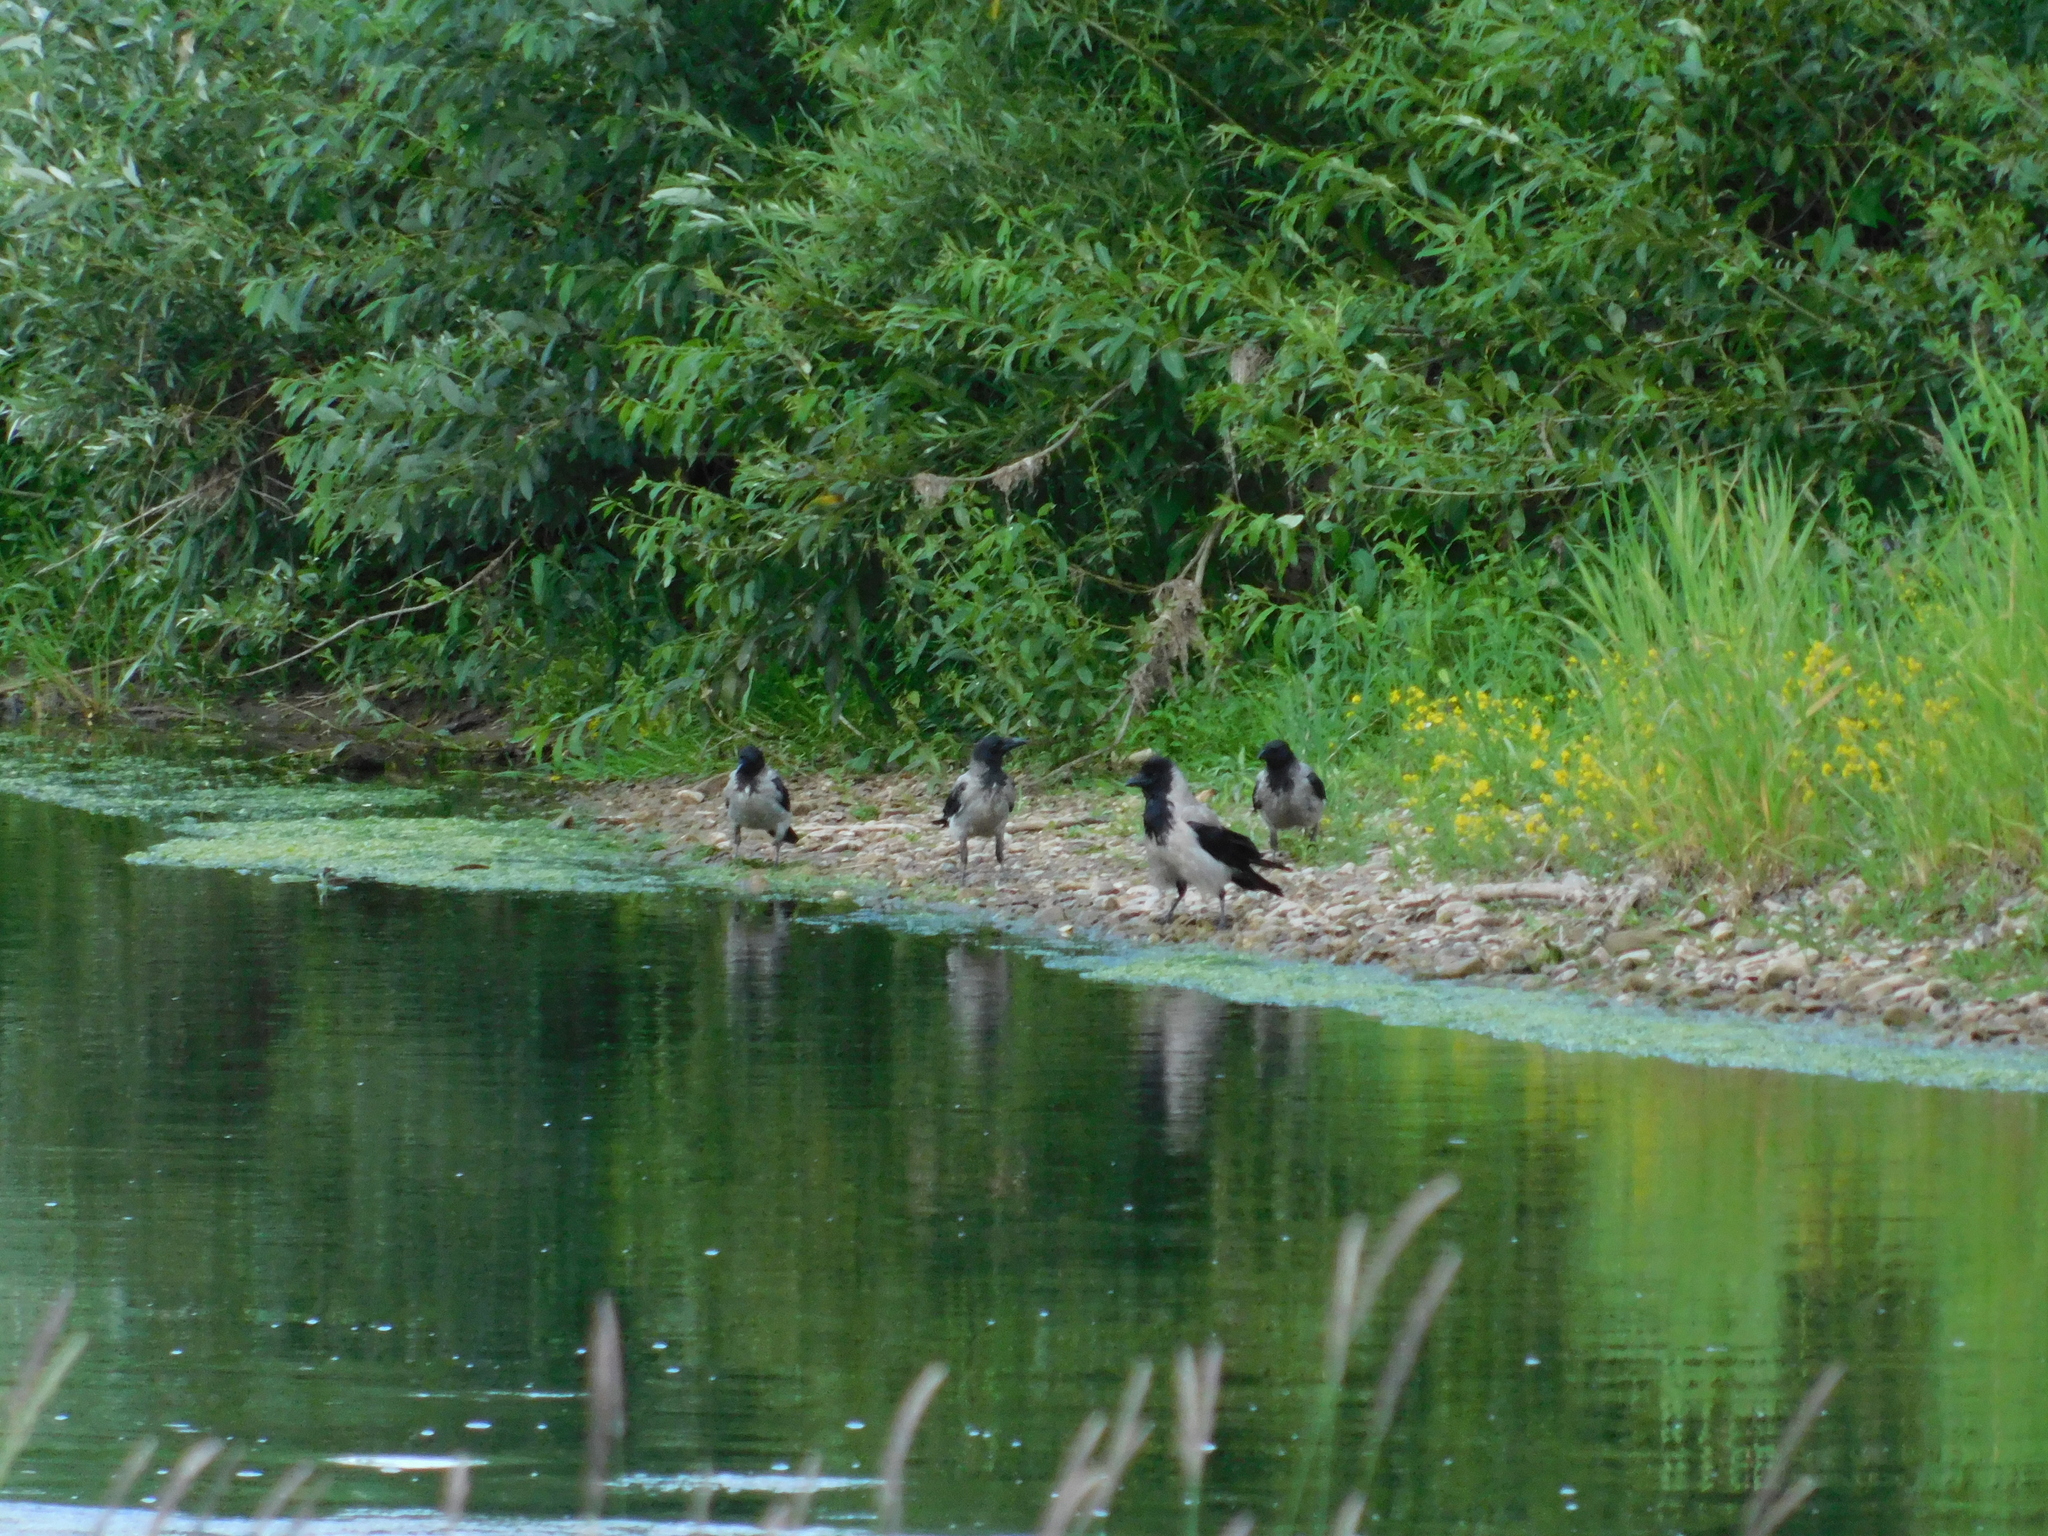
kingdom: Animalia
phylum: Chordata
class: Aves
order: Passeriformes
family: Corvidae
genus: Corvus
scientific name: Corvus cornix
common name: Hooded crow
